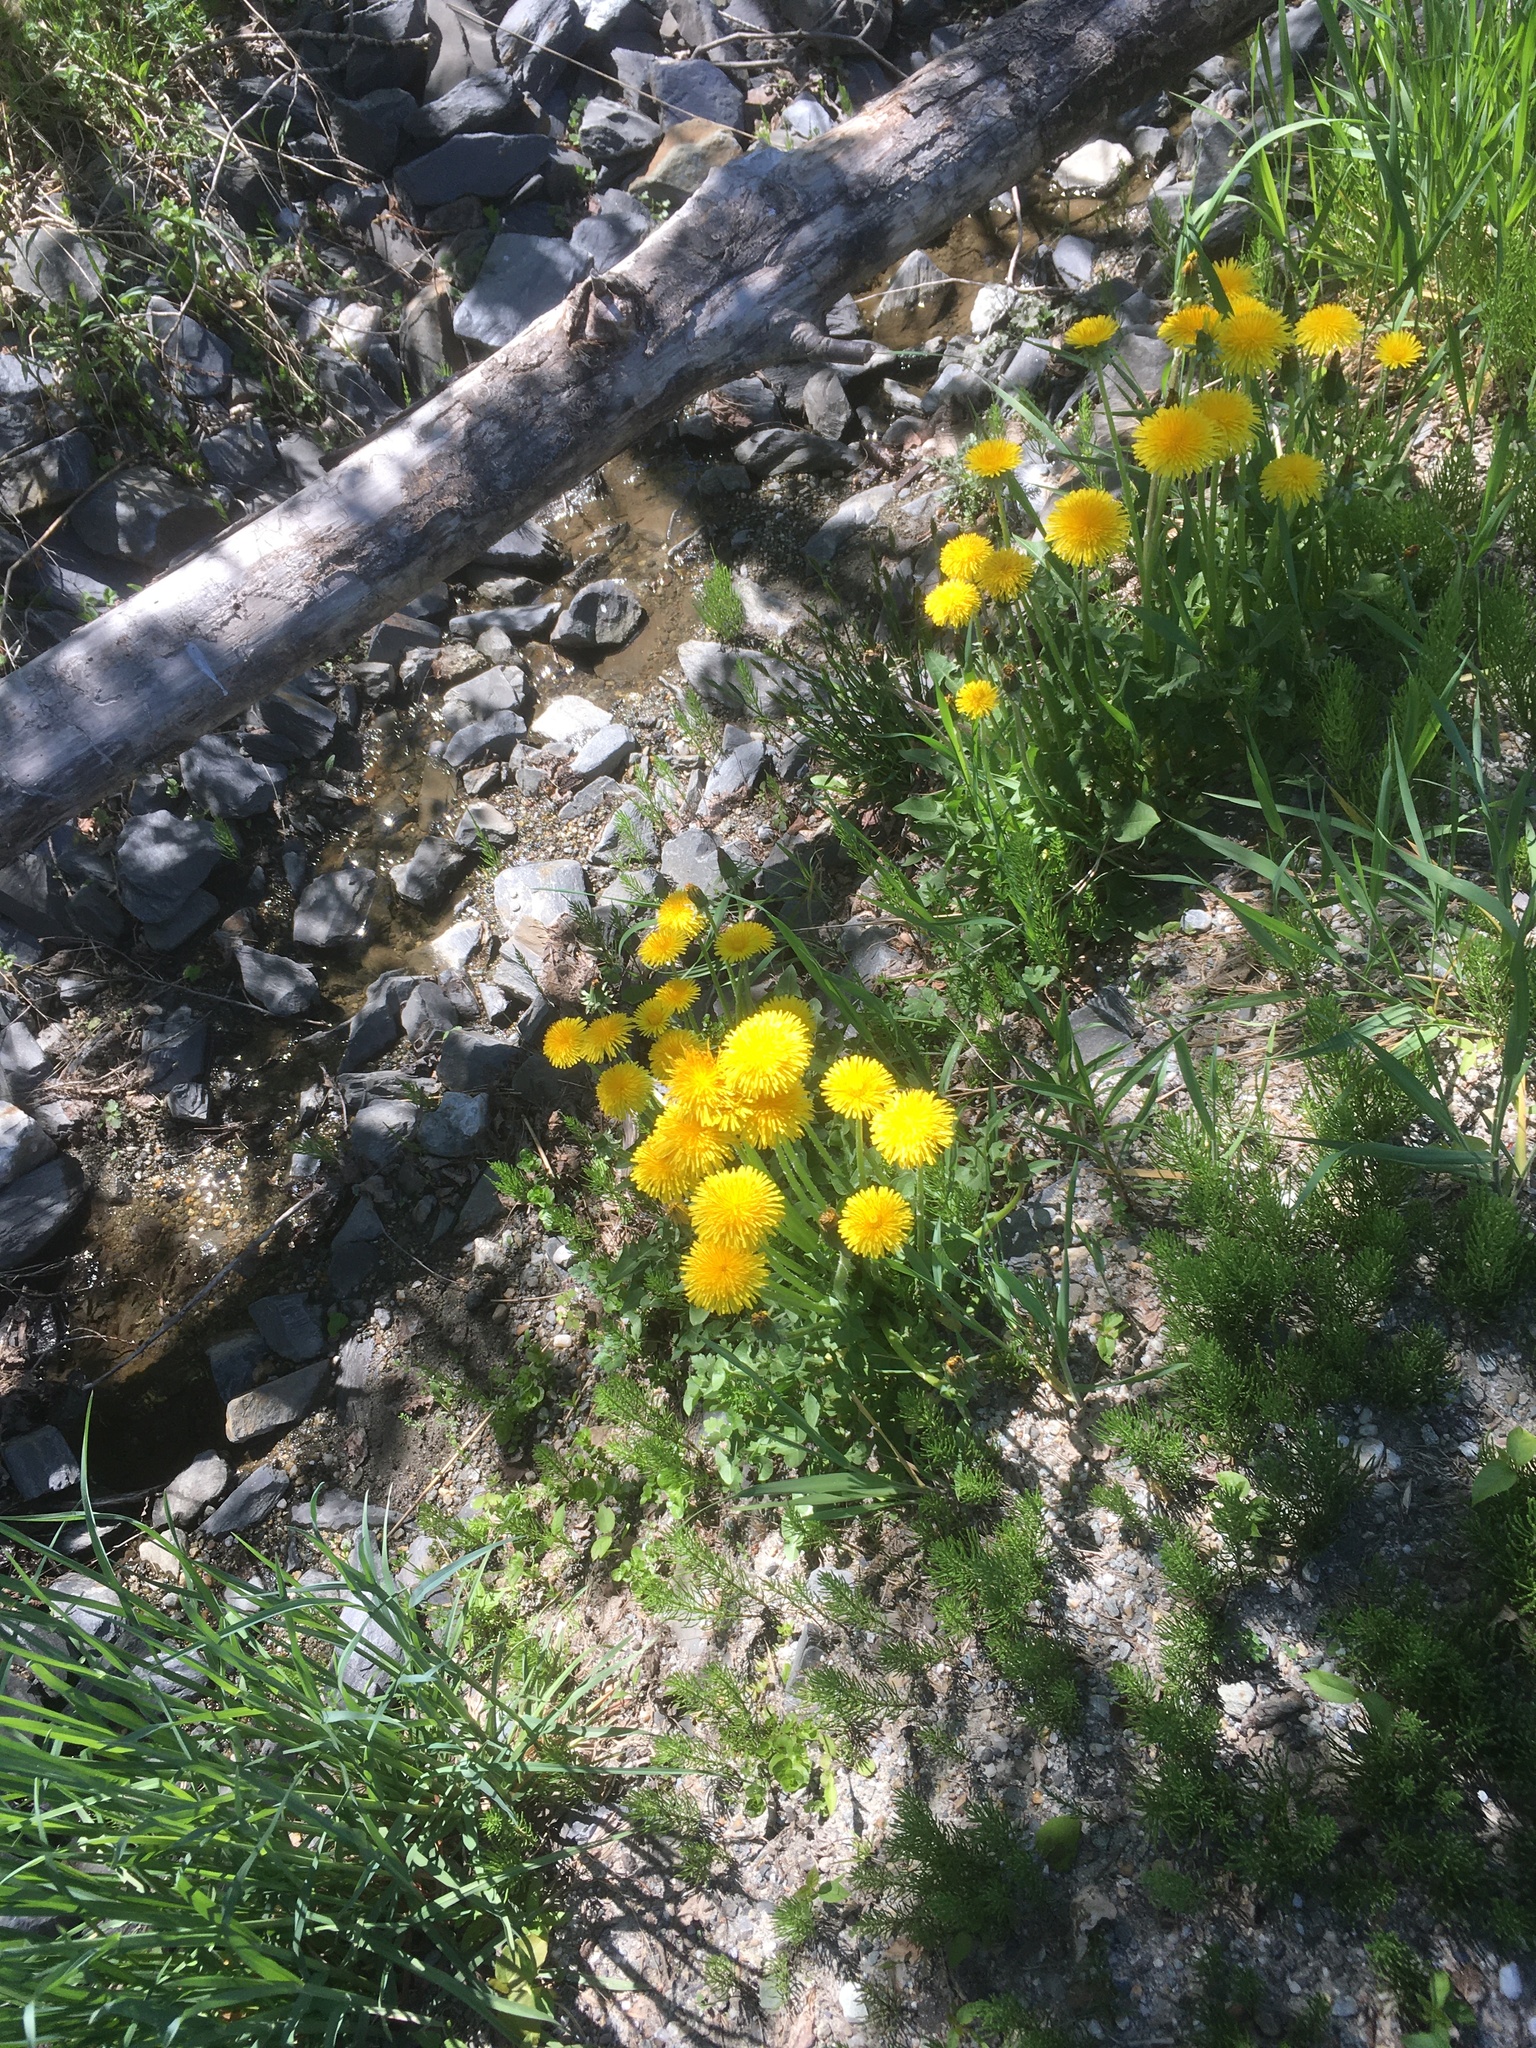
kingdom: Plantae
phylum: Tracheophyta
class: Polypodiopsida
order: Equisetales
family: Equisetaceae
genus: Equisetum
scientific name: Equisetum arvense
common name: Field horsetail
